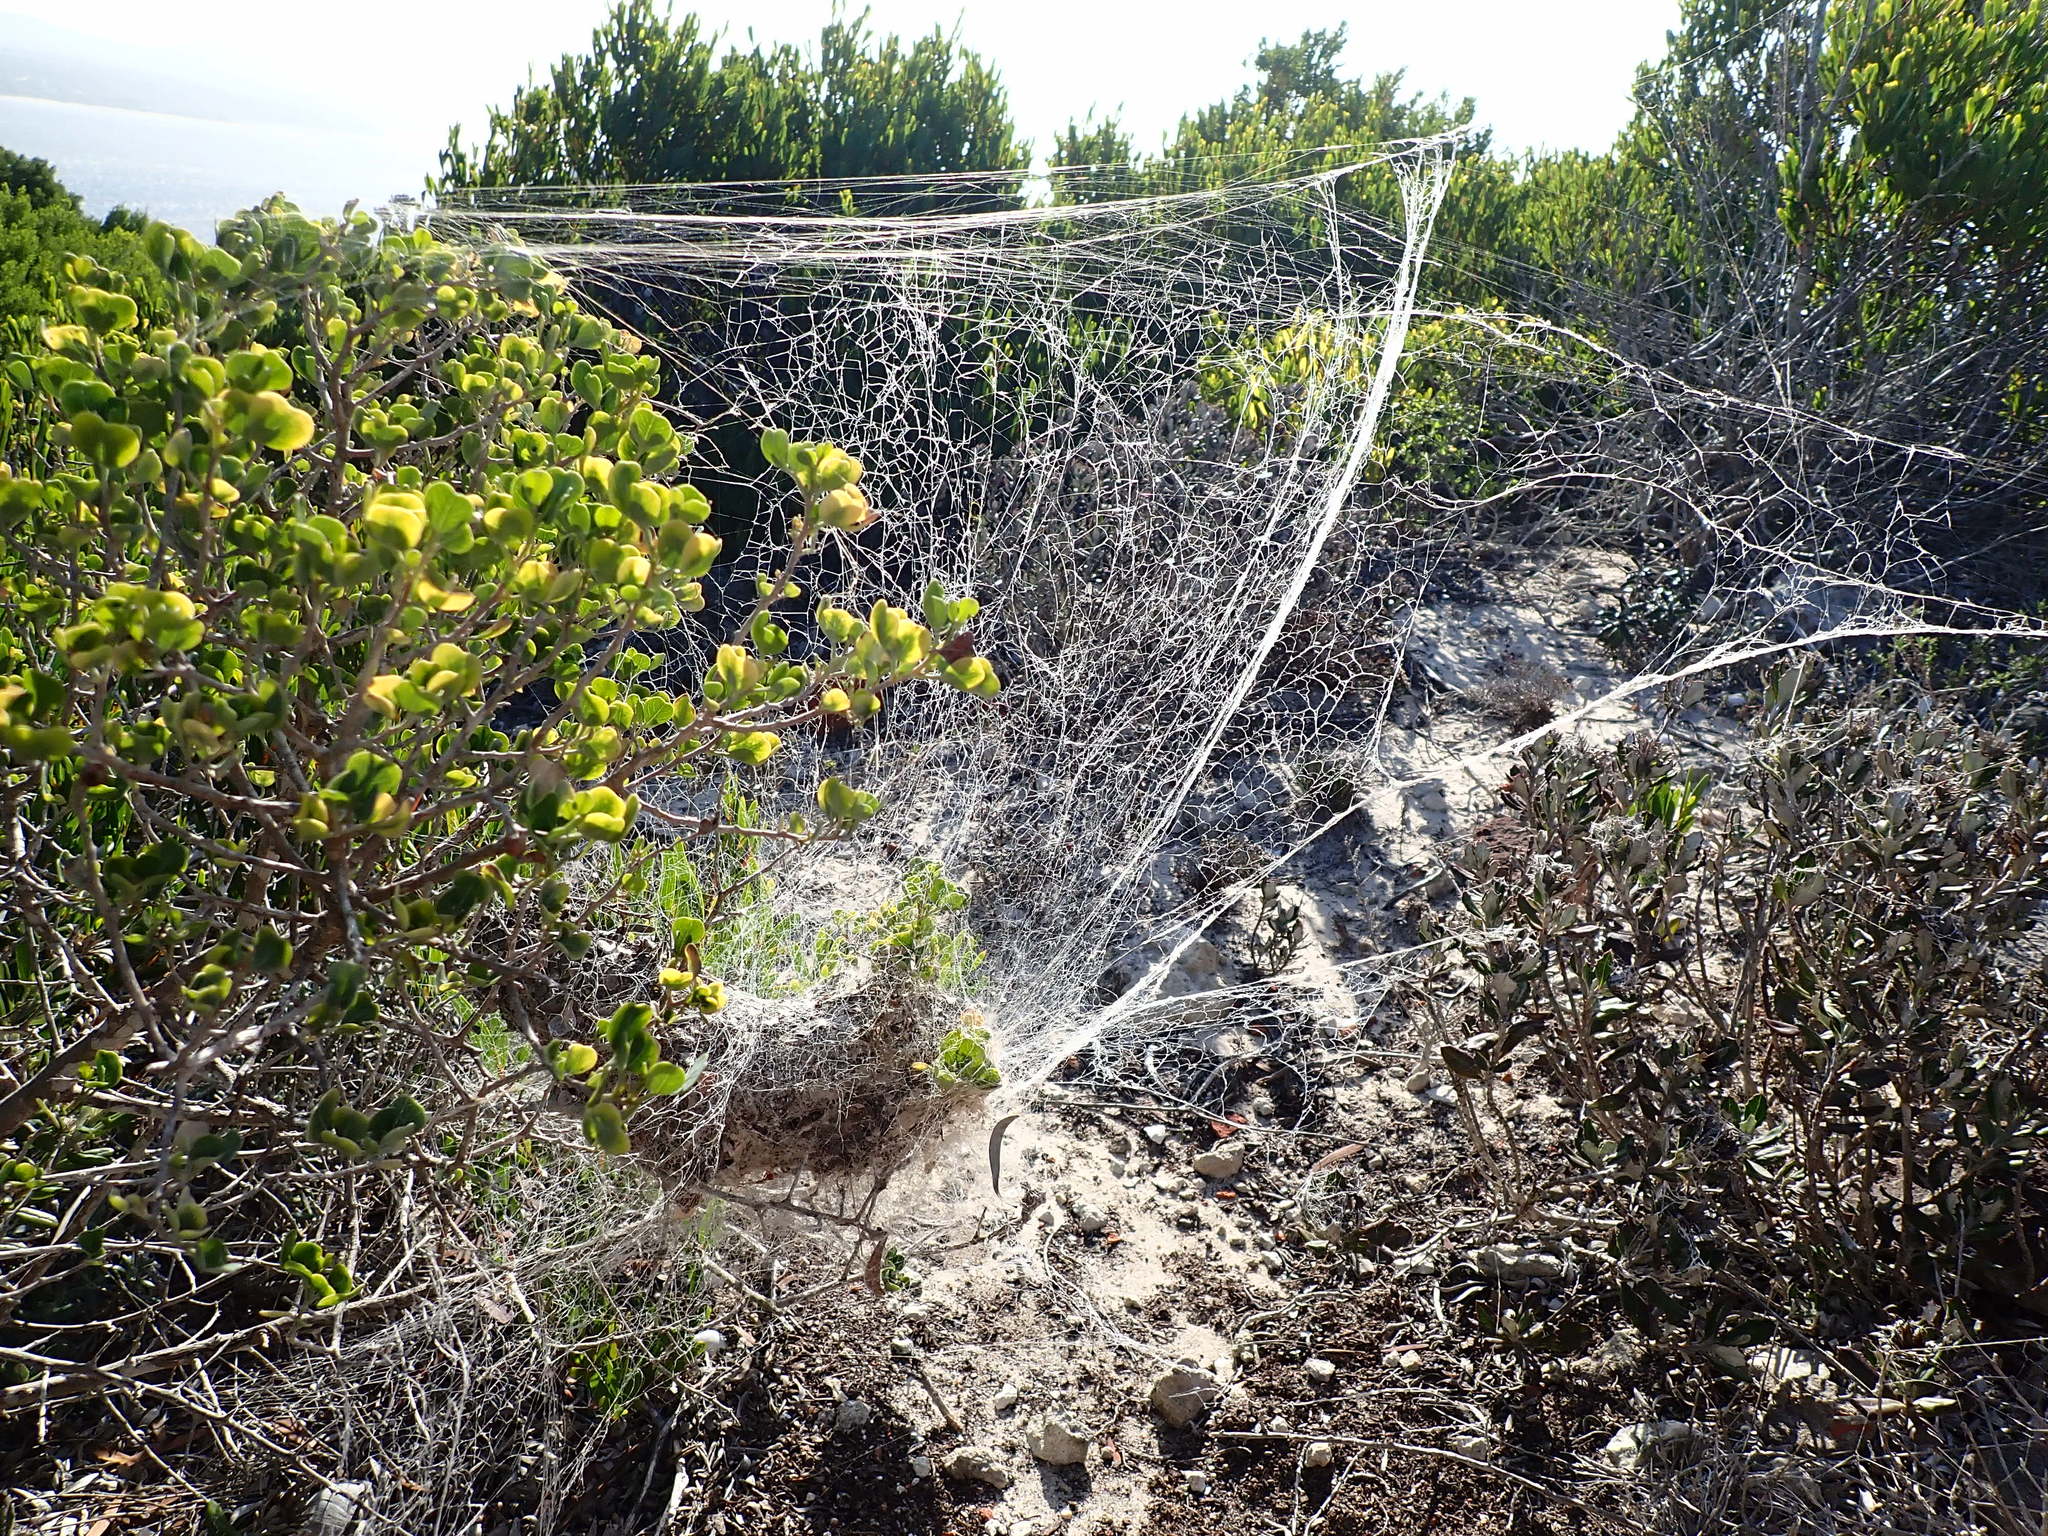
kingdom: Animalia
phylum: Arthropoda
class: Arachnida
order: Araneae
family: Eresidae
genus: Stegodyphus
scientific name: Stegodyphus dumicola
